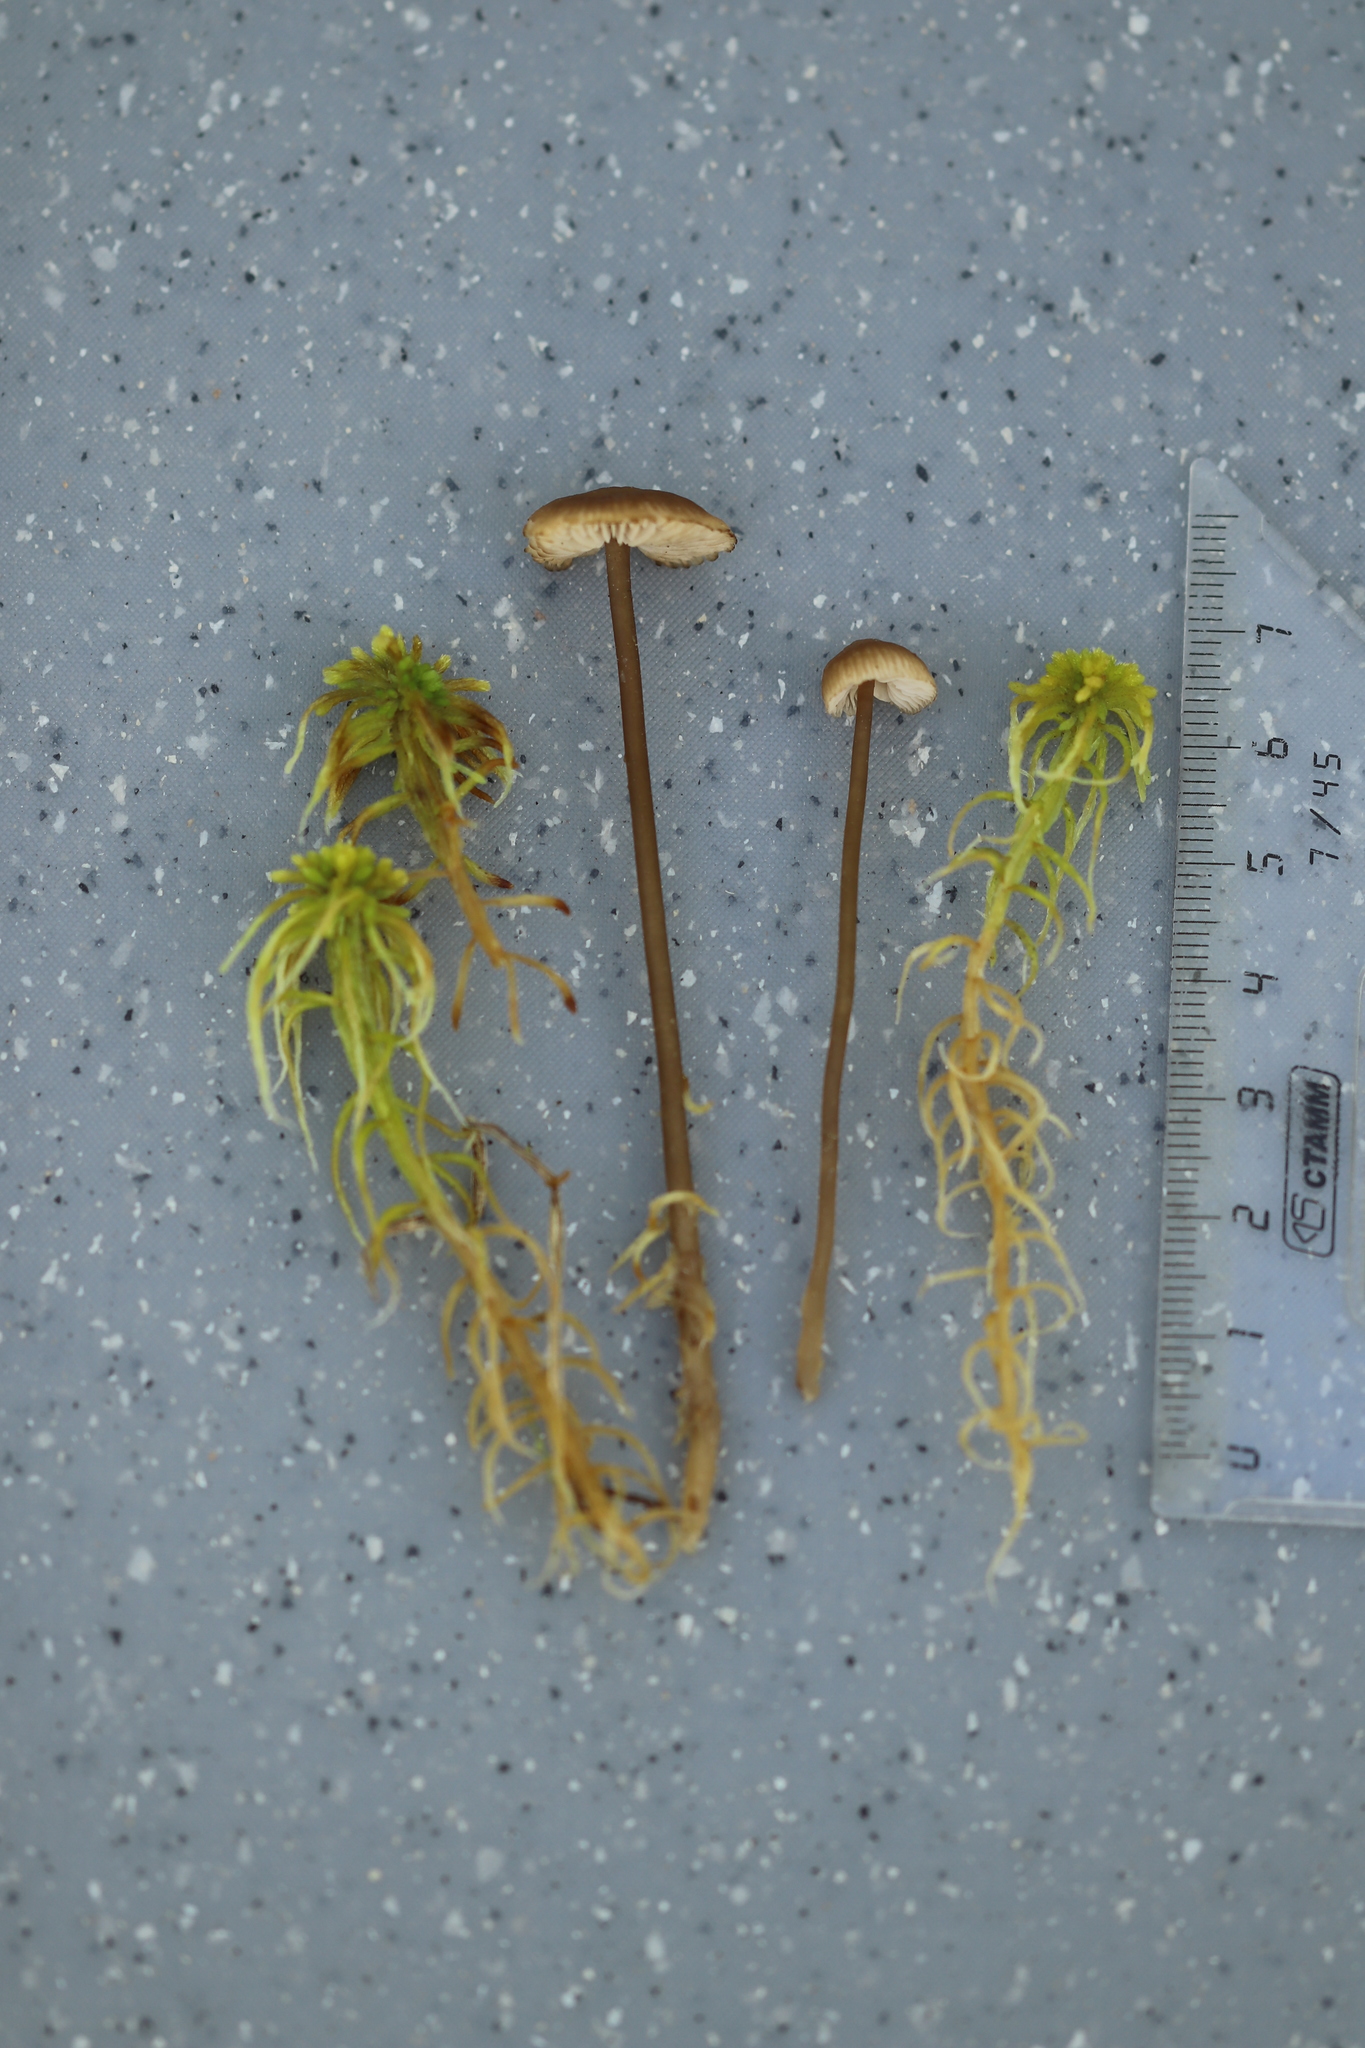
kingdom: Fungi
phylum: Basidiomycota
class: Agaricomycetes
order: Agaricales
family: Lyophyllaceae
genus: Sphagnurus
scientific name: Sphagnurus paluster
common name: Sphagnum greyling
